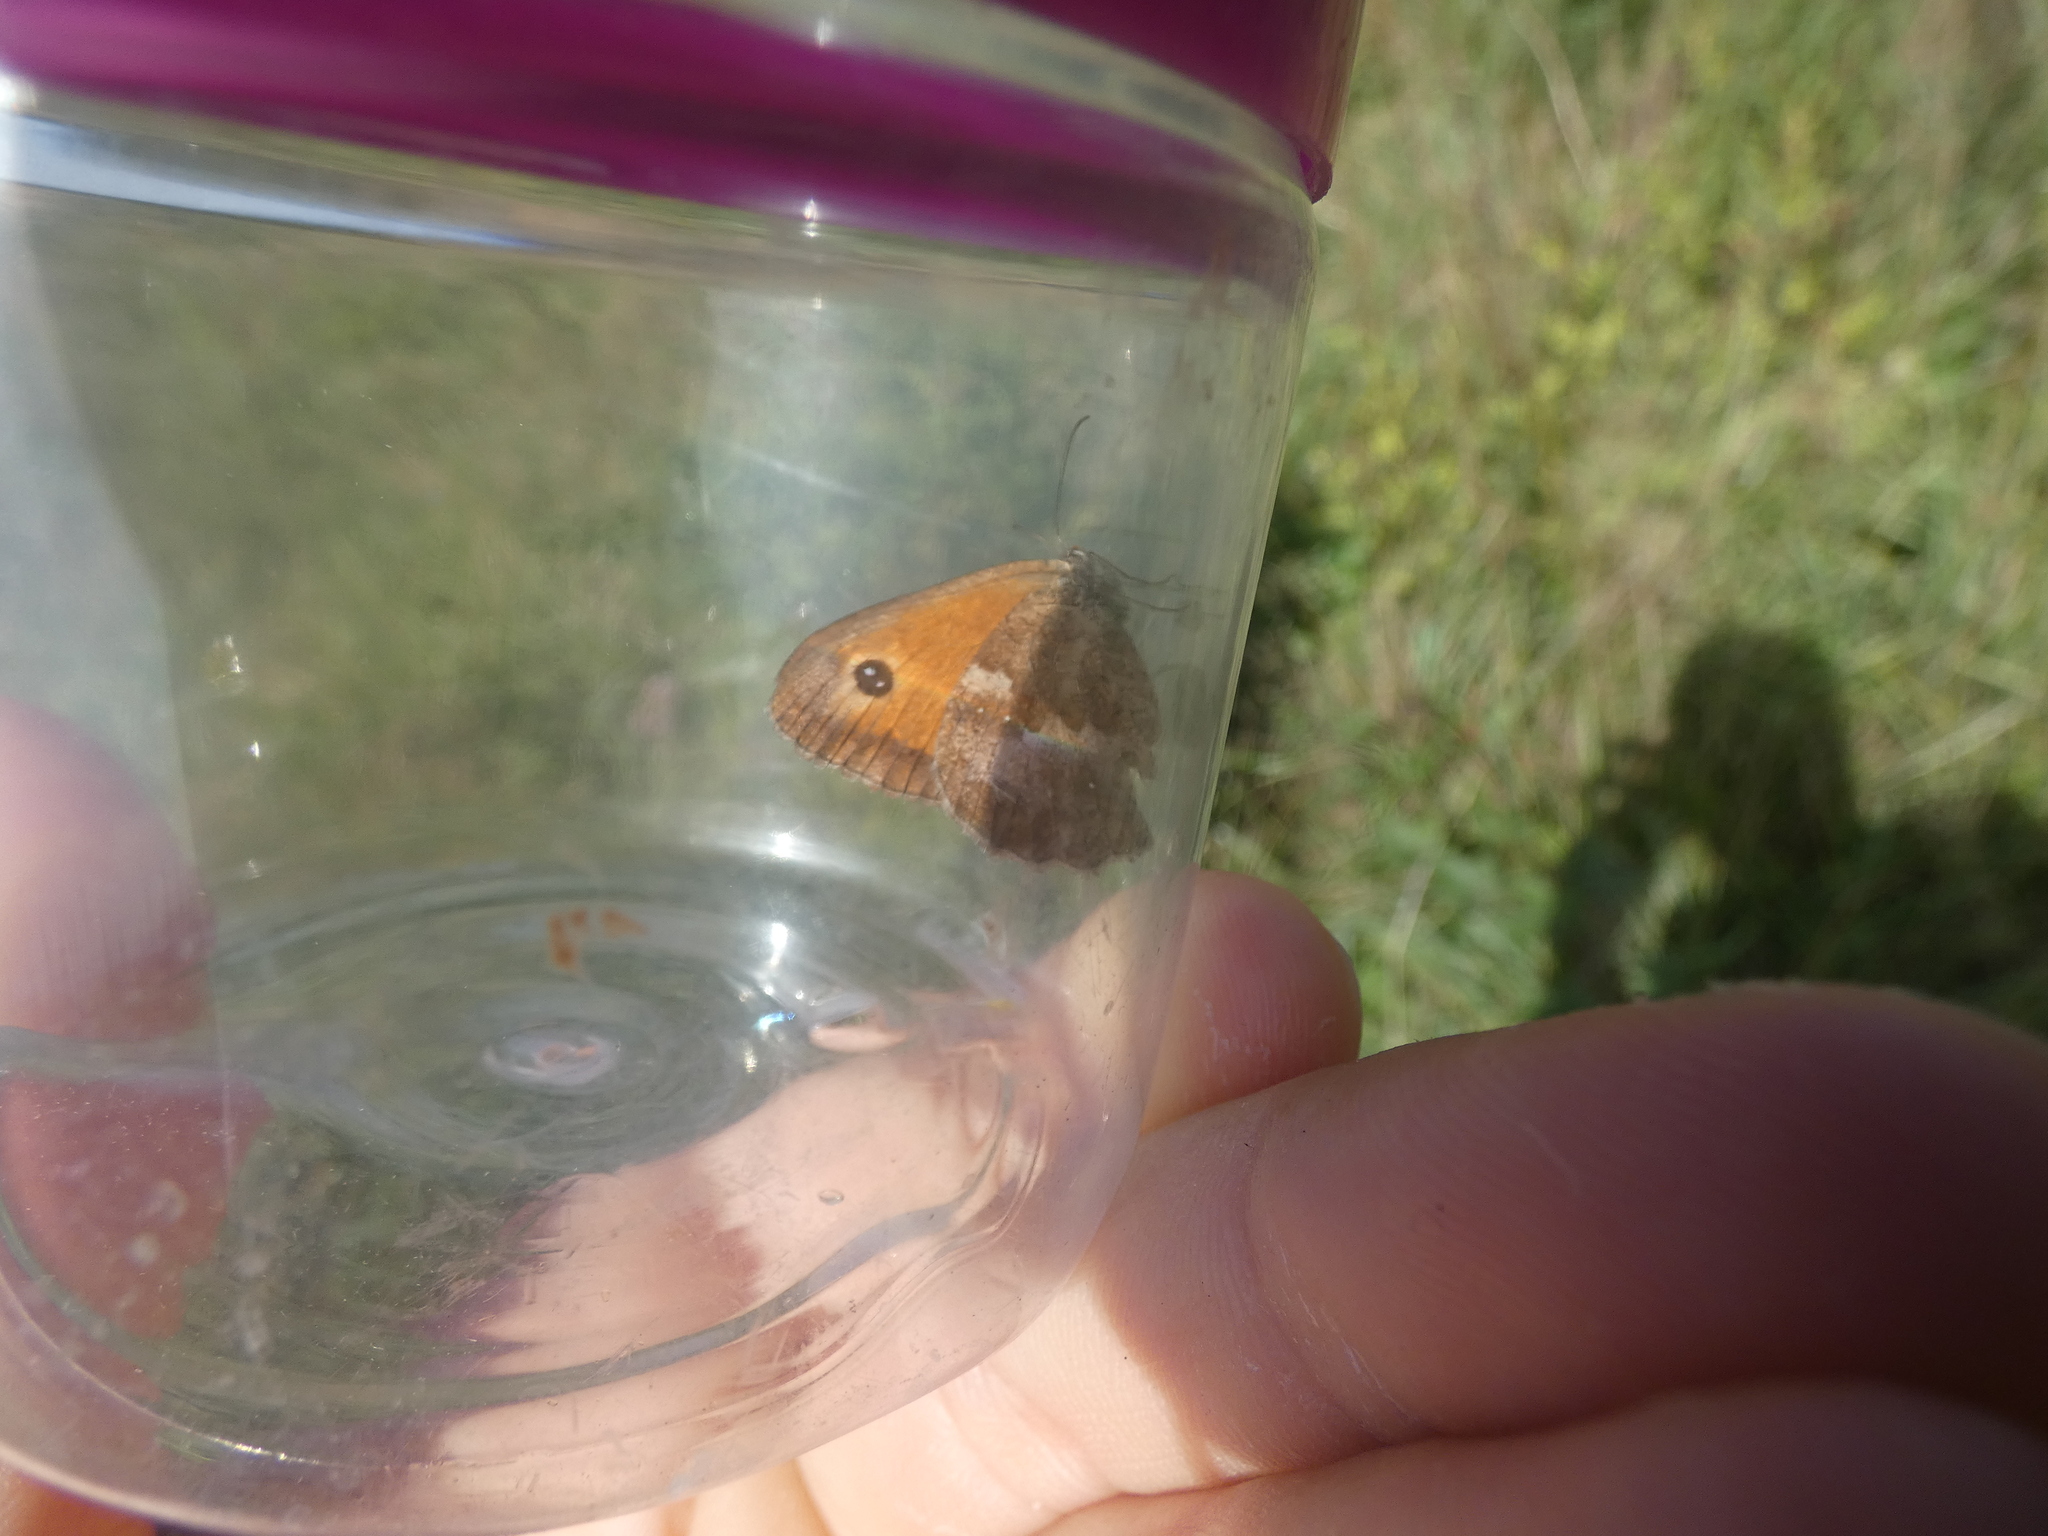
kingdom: Animalia
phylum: Arthropoda
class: Insecta
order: Lepidoptera
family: Nymphalidae
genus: Pyronia
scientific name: Pyronia tithonus
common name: Gatekeeper
